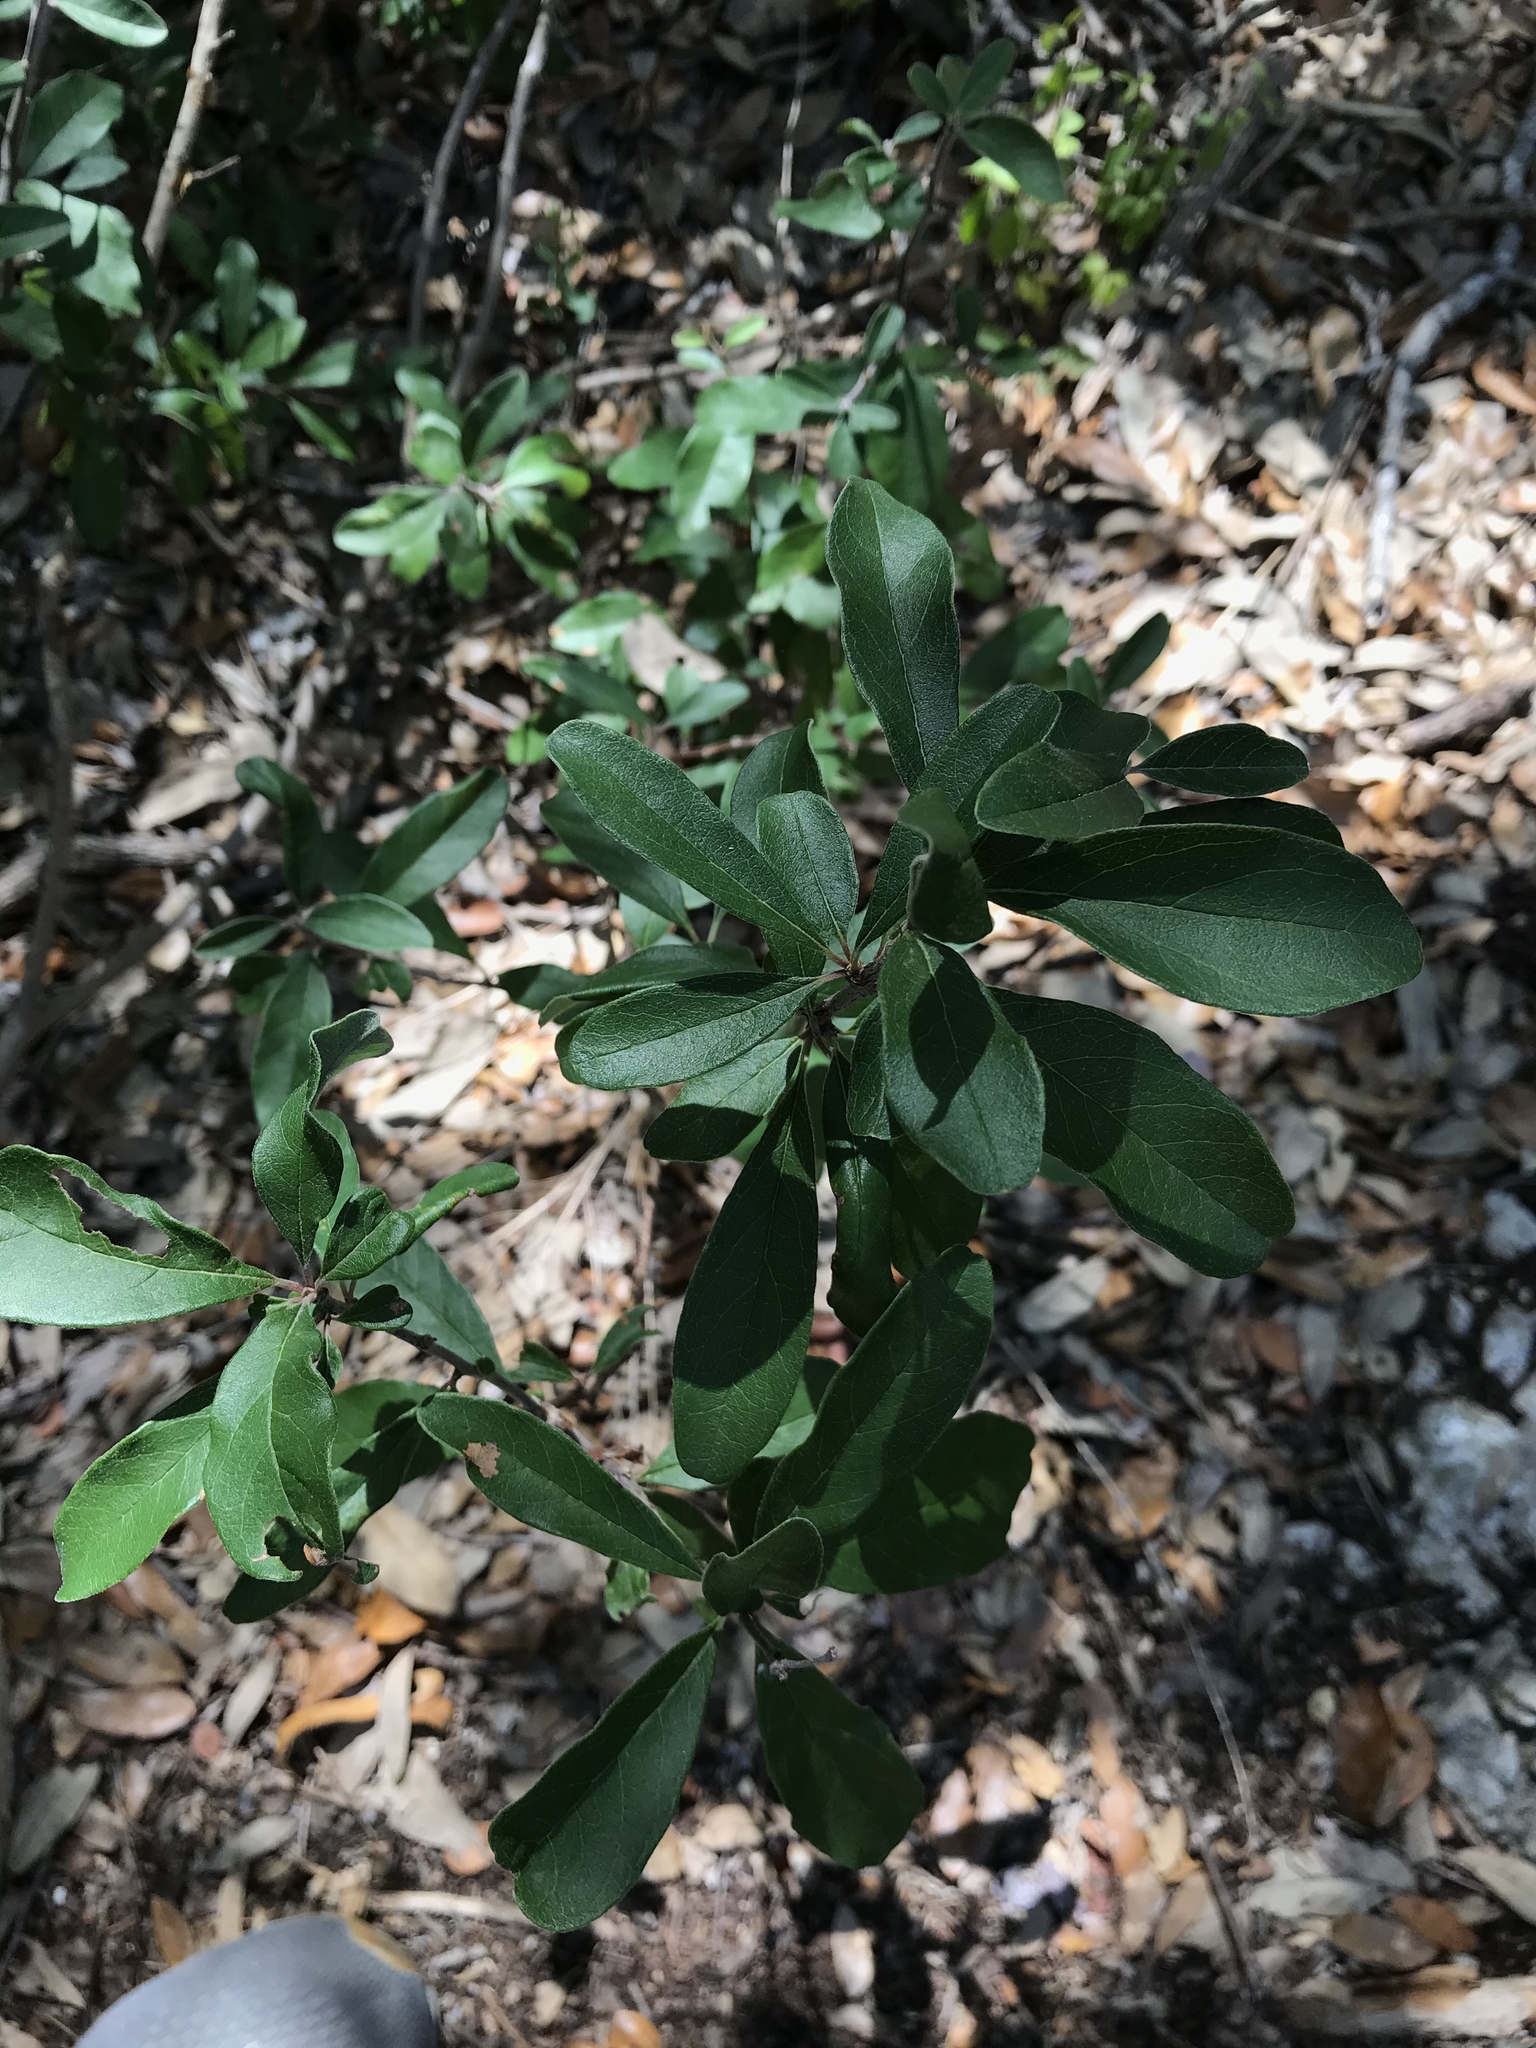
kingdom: Plantae
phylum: Tracheophyta
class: Magnoliopsida
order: Ericales
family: Sapotaceae
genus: Sideroxylon
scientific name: Sideroxylon lanuginosum
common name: Chittamwood
